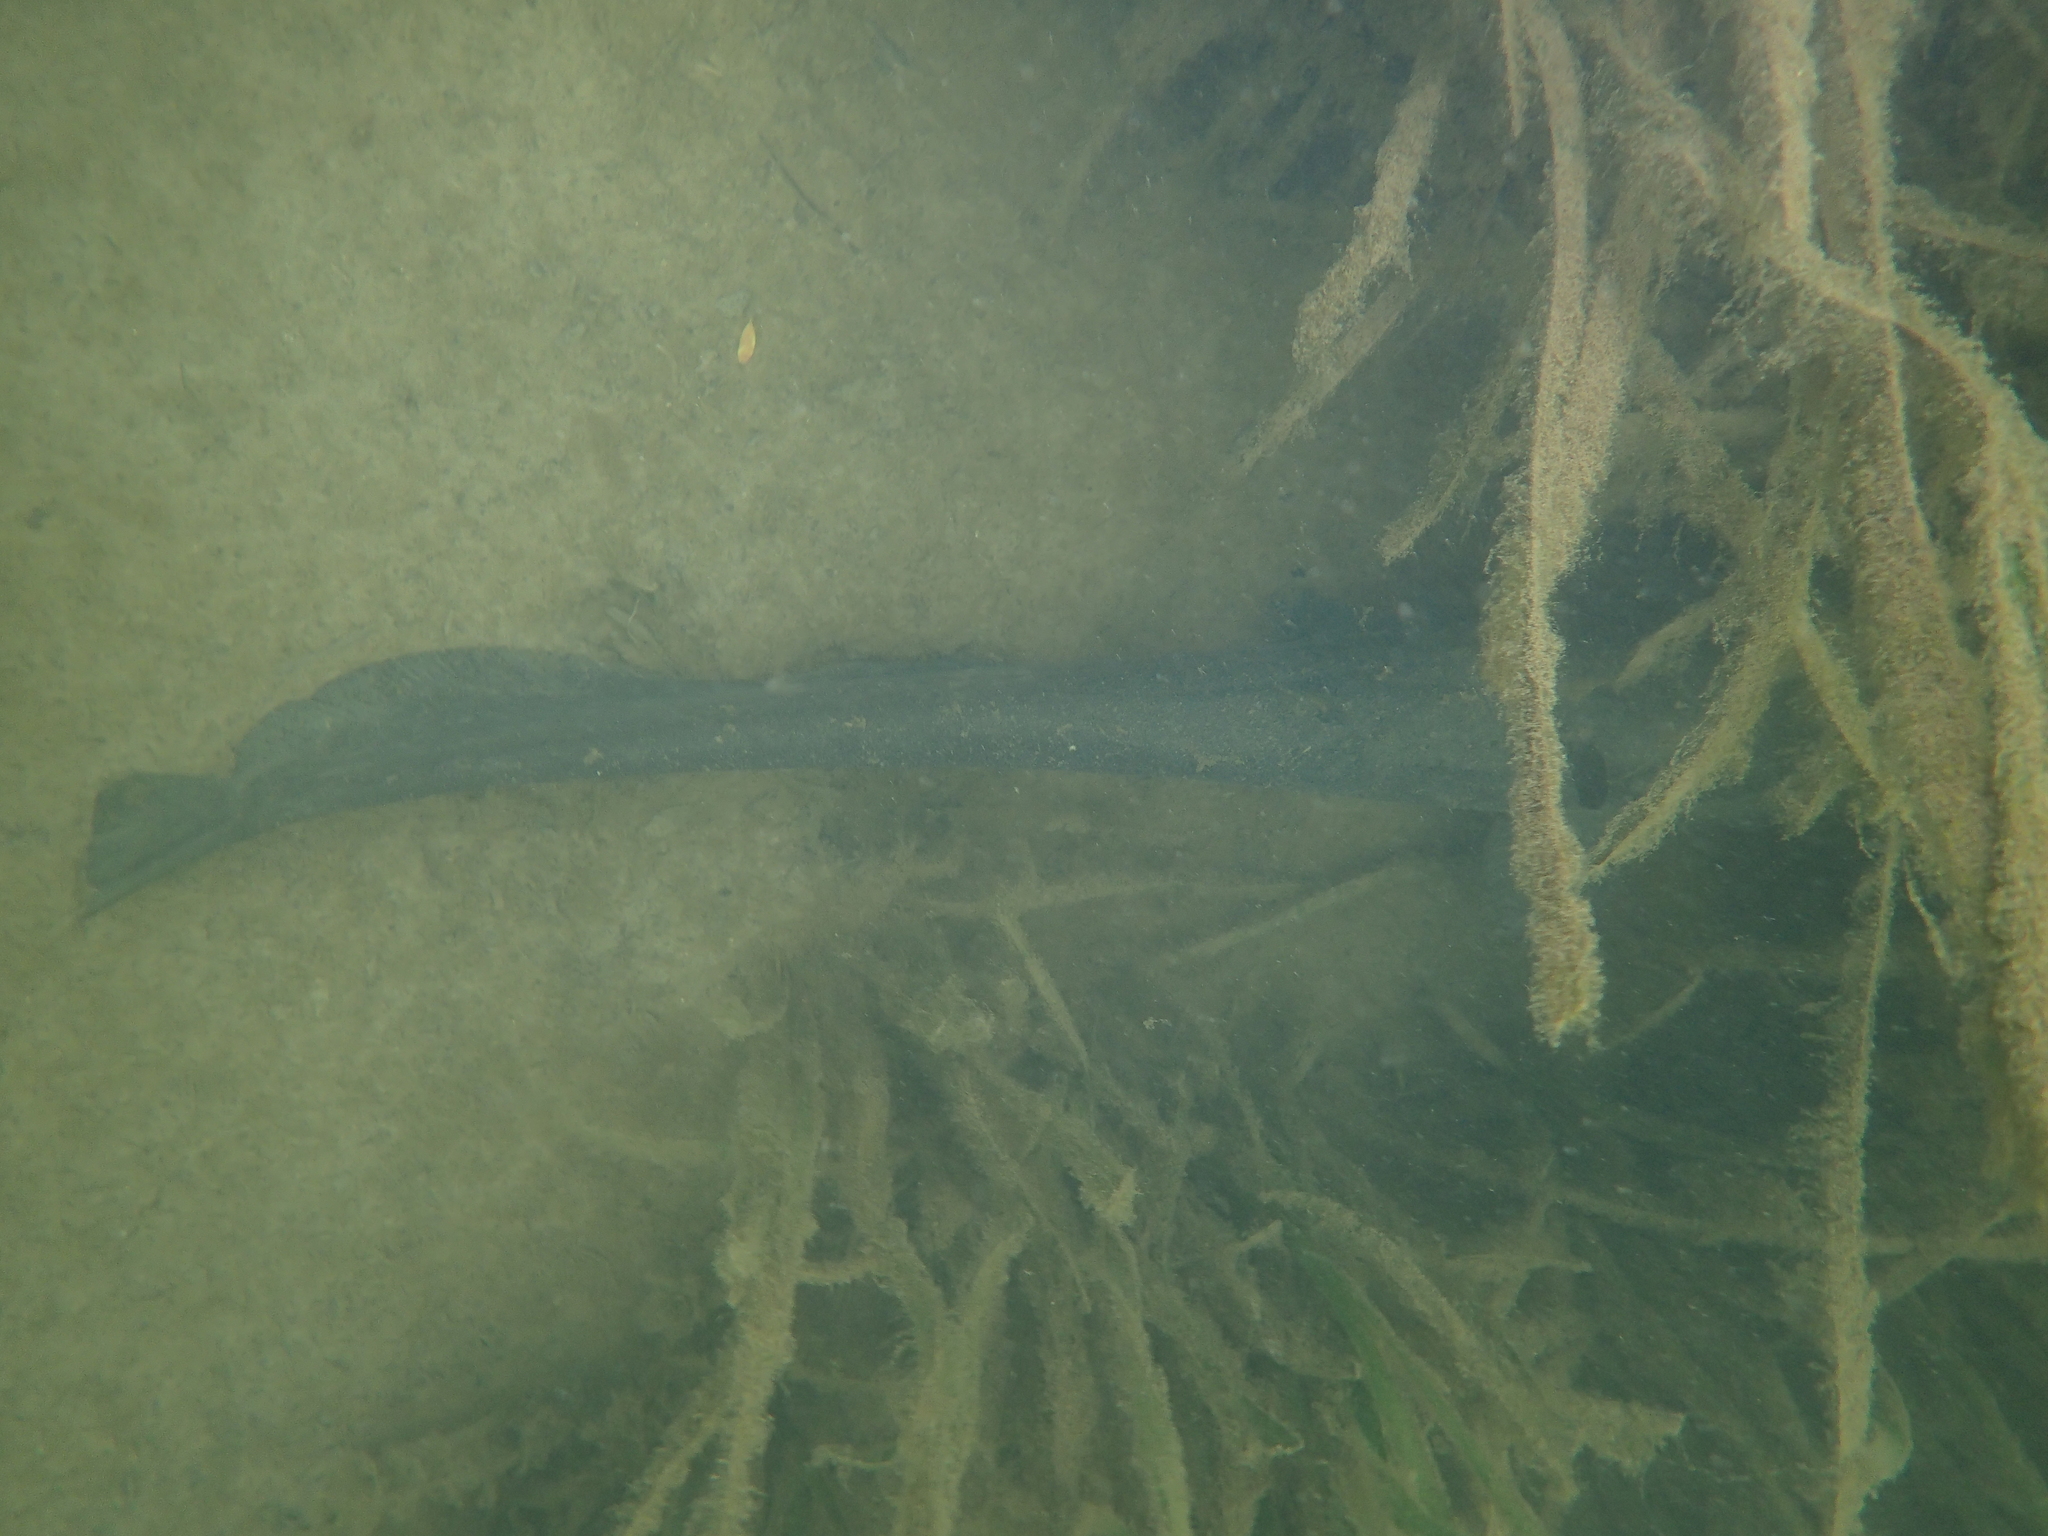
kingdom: Animalia
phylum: Chordata
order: Siluriformes
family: Siluridae
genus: Silurus
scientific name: Silurus glanis
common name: Wels
